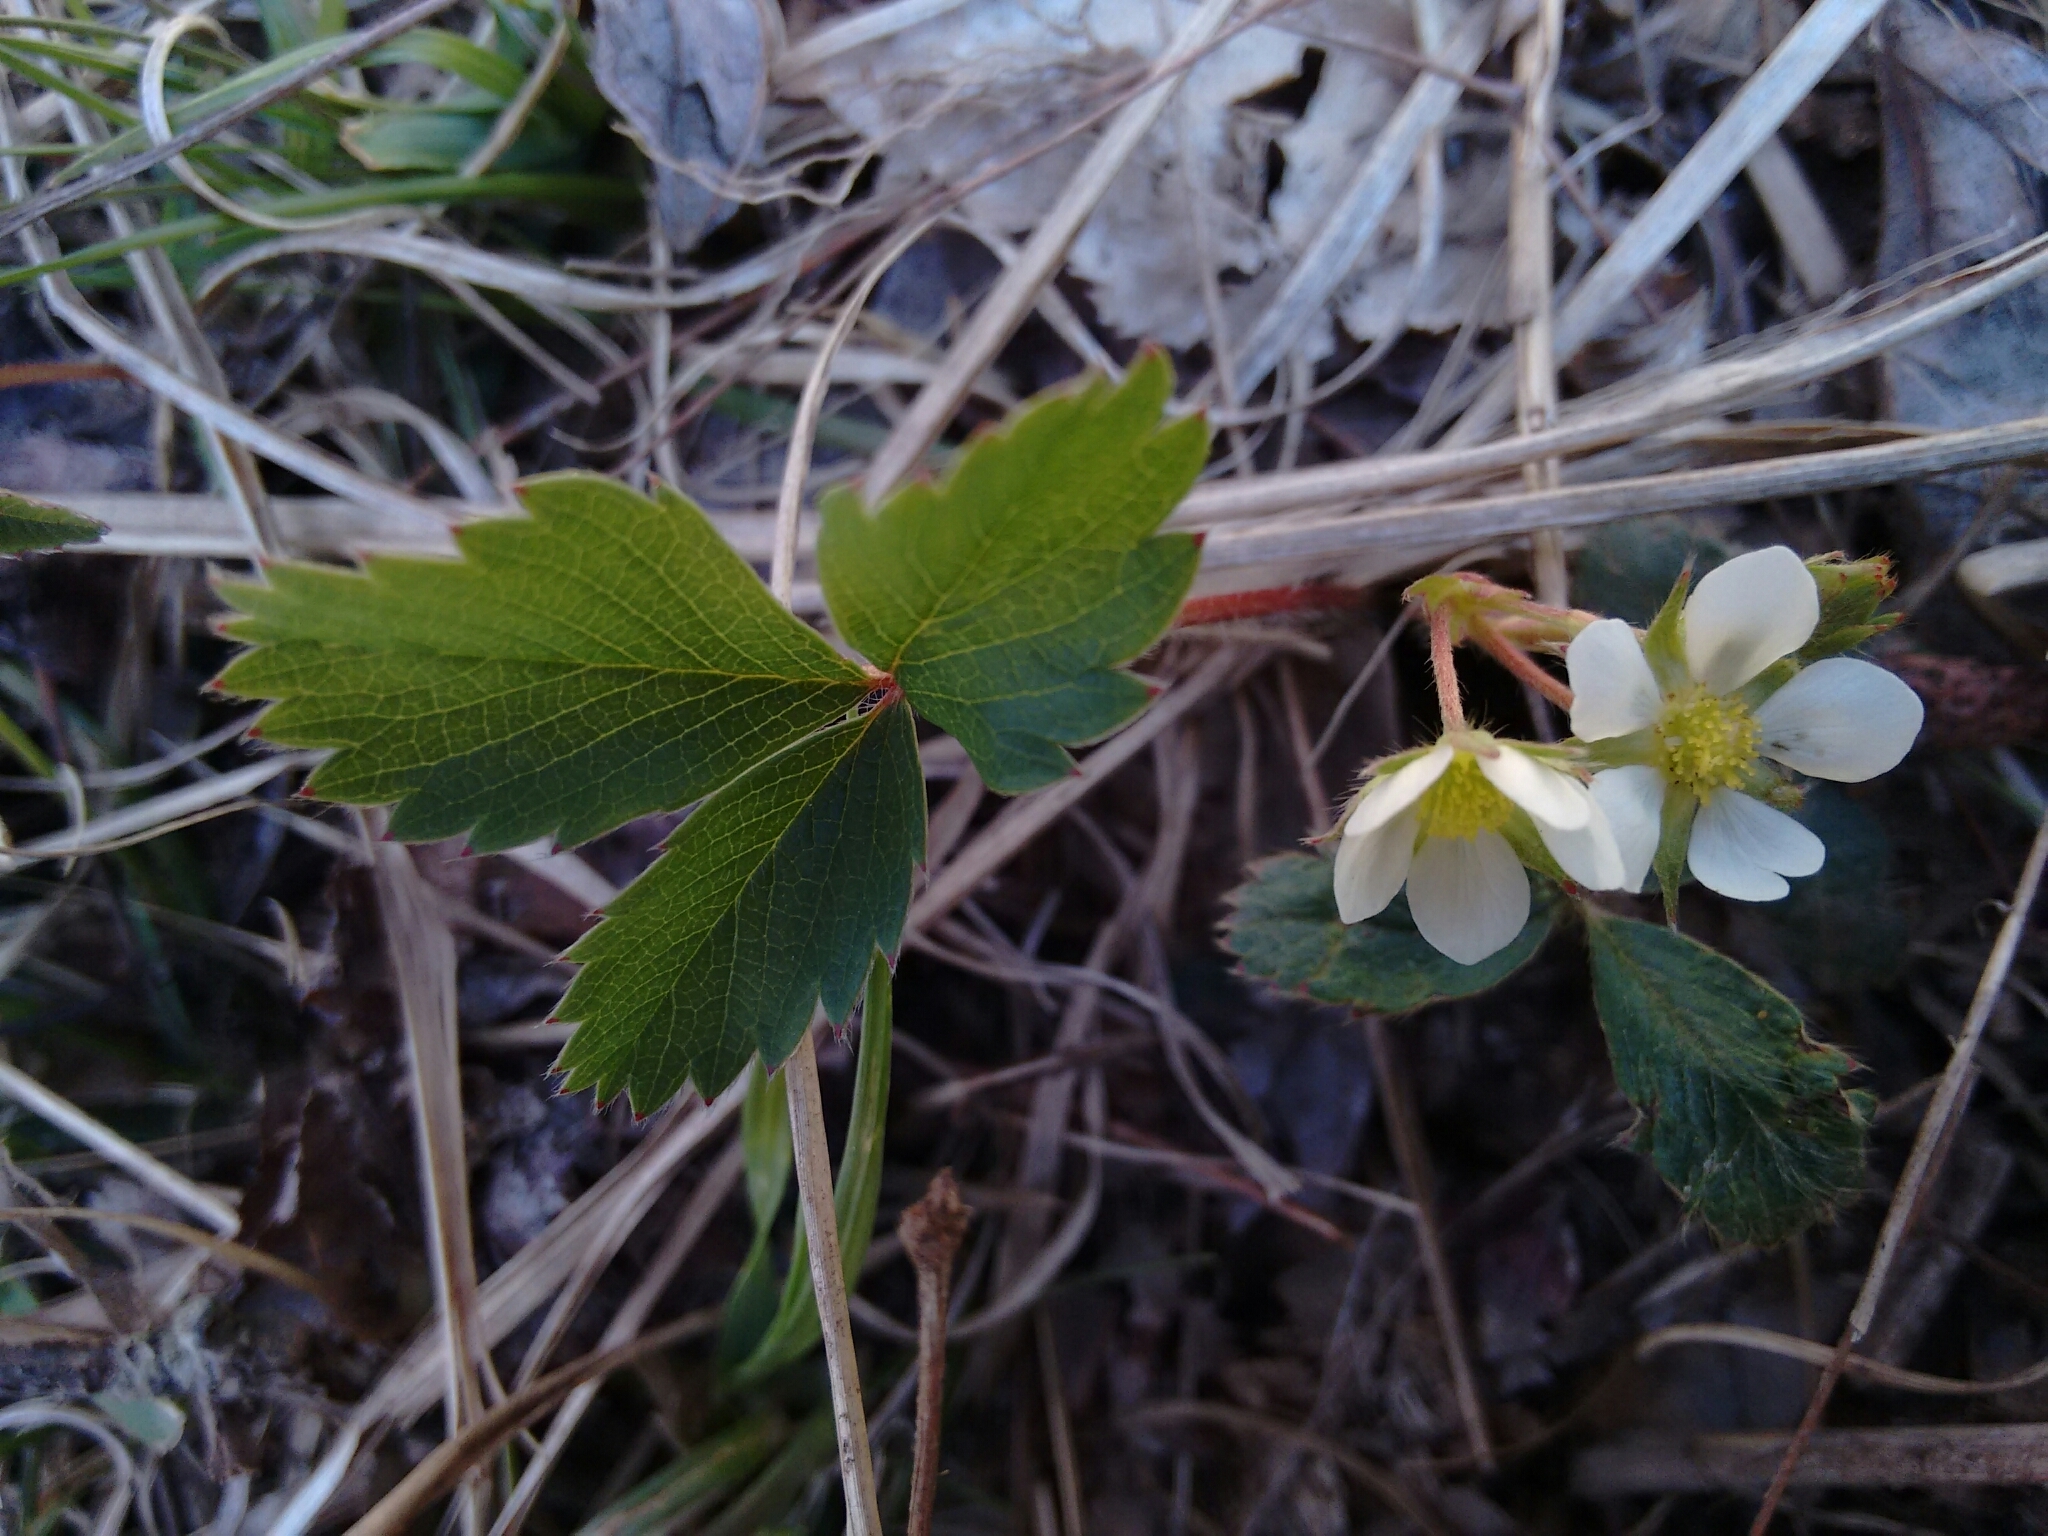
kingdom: Plantae
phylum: Tracheophyta
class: Magnoliopsida
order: Rosales
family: Rosaceae
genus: Fragaria
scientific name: Fragaria vesca
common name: Wild strawberry
